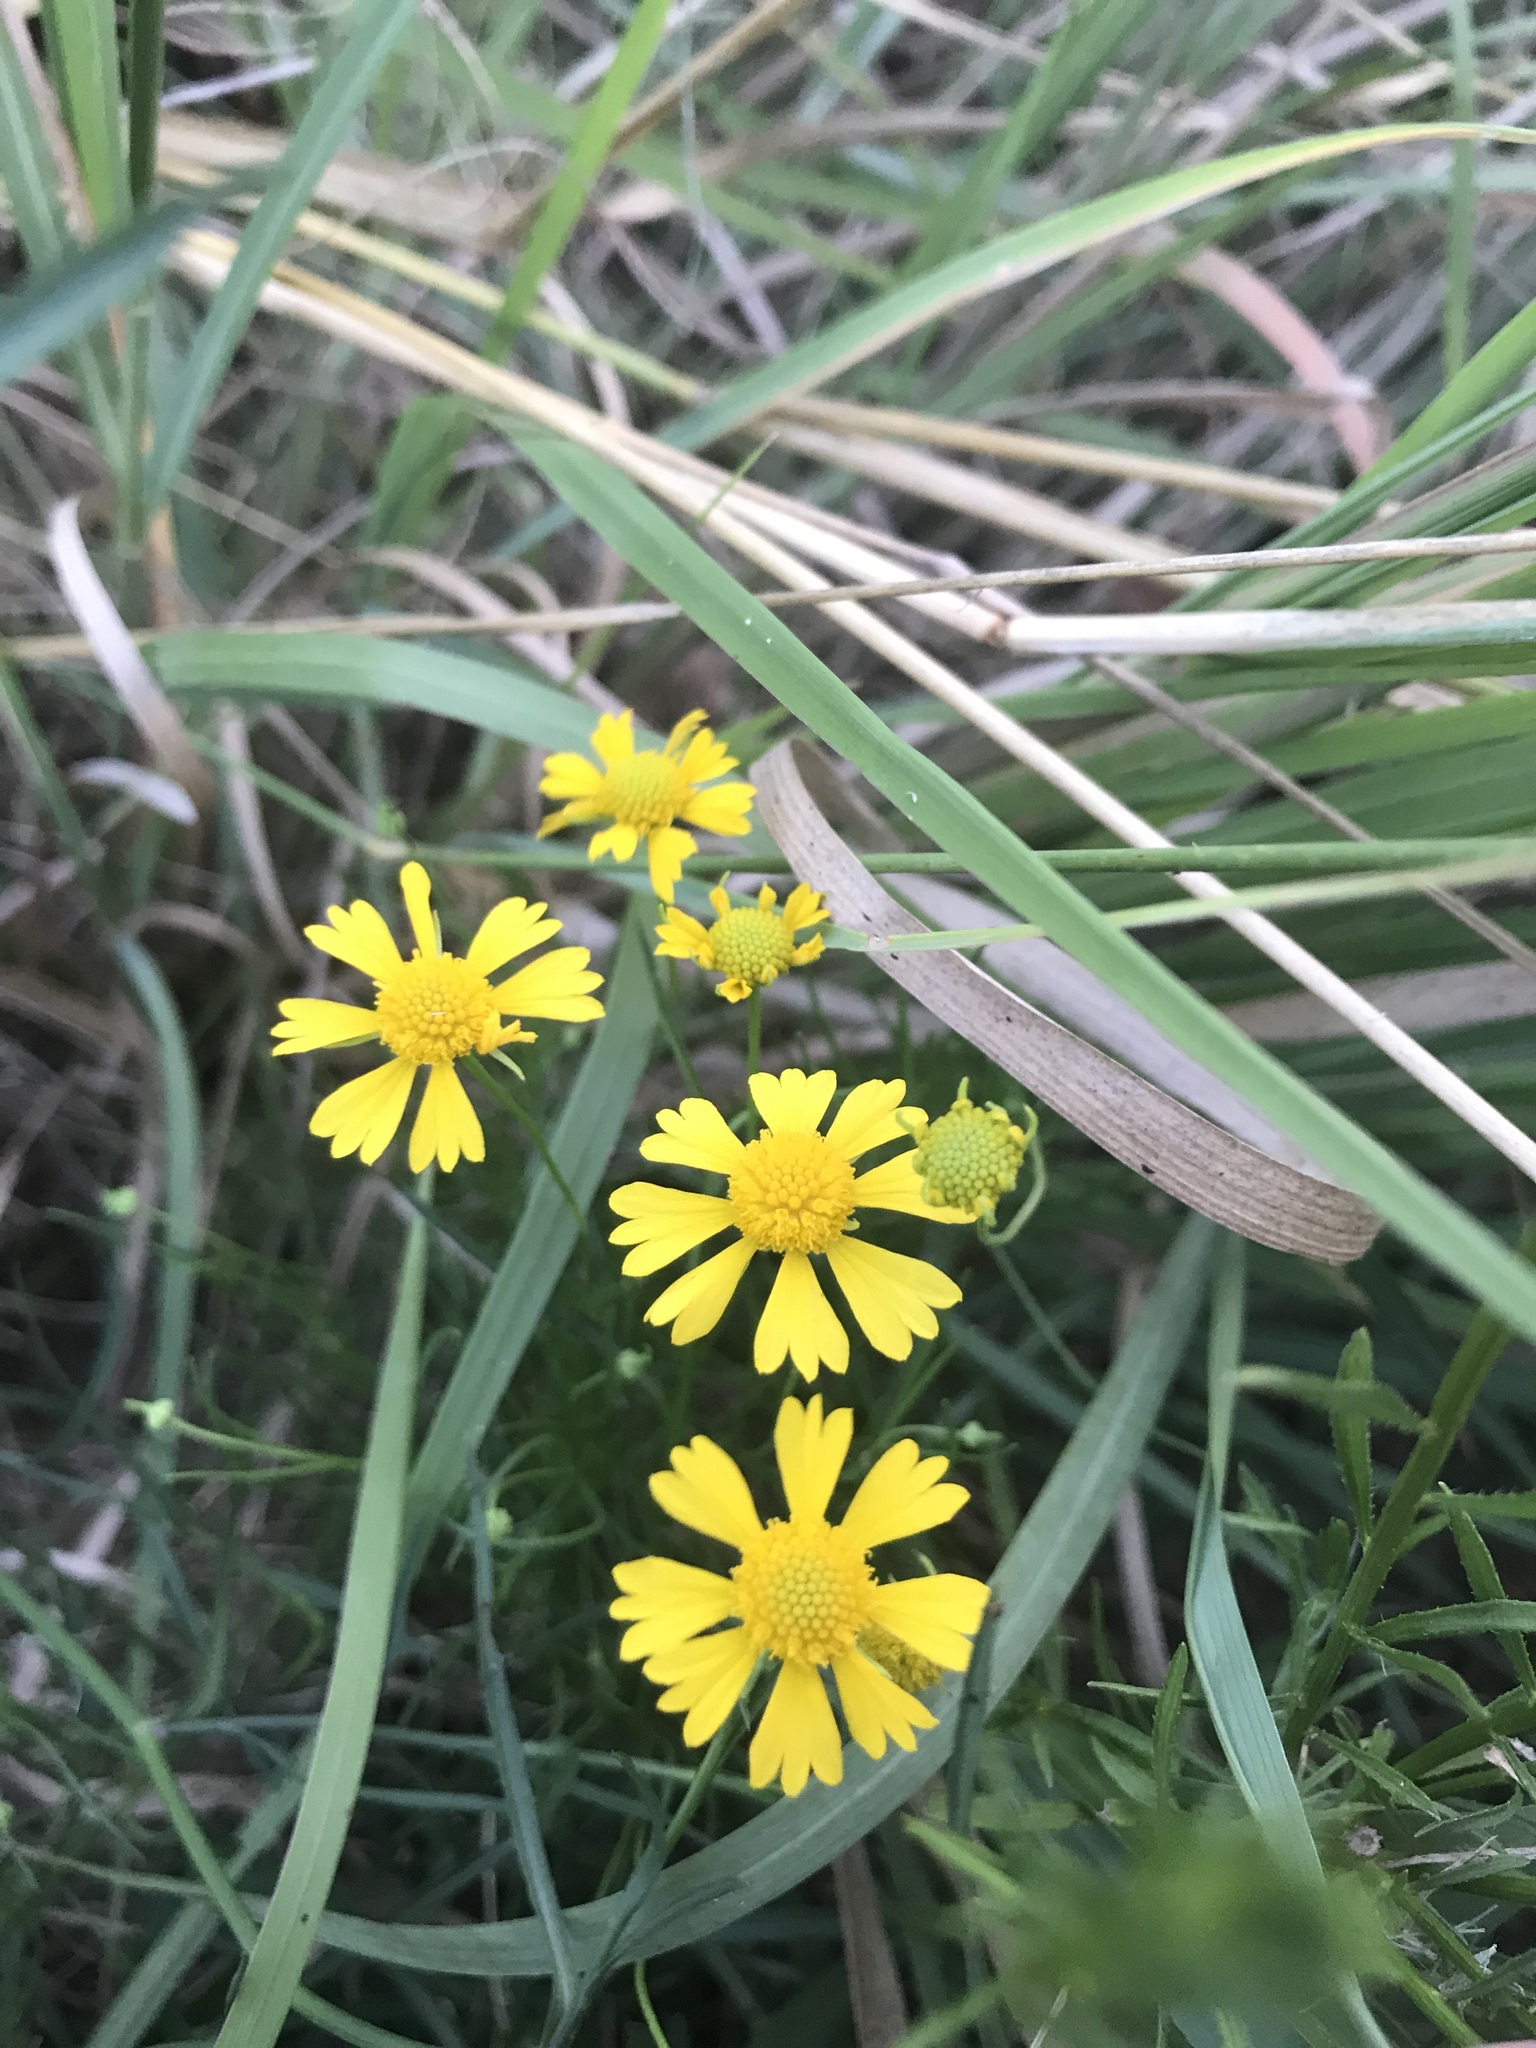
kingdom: Plantae
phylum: Tracheophyta
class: Magnoliopsida
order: Asterales
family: Asteraceae
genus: Helenium
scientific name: Helenium amarum
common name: Bitter sneezeweed
